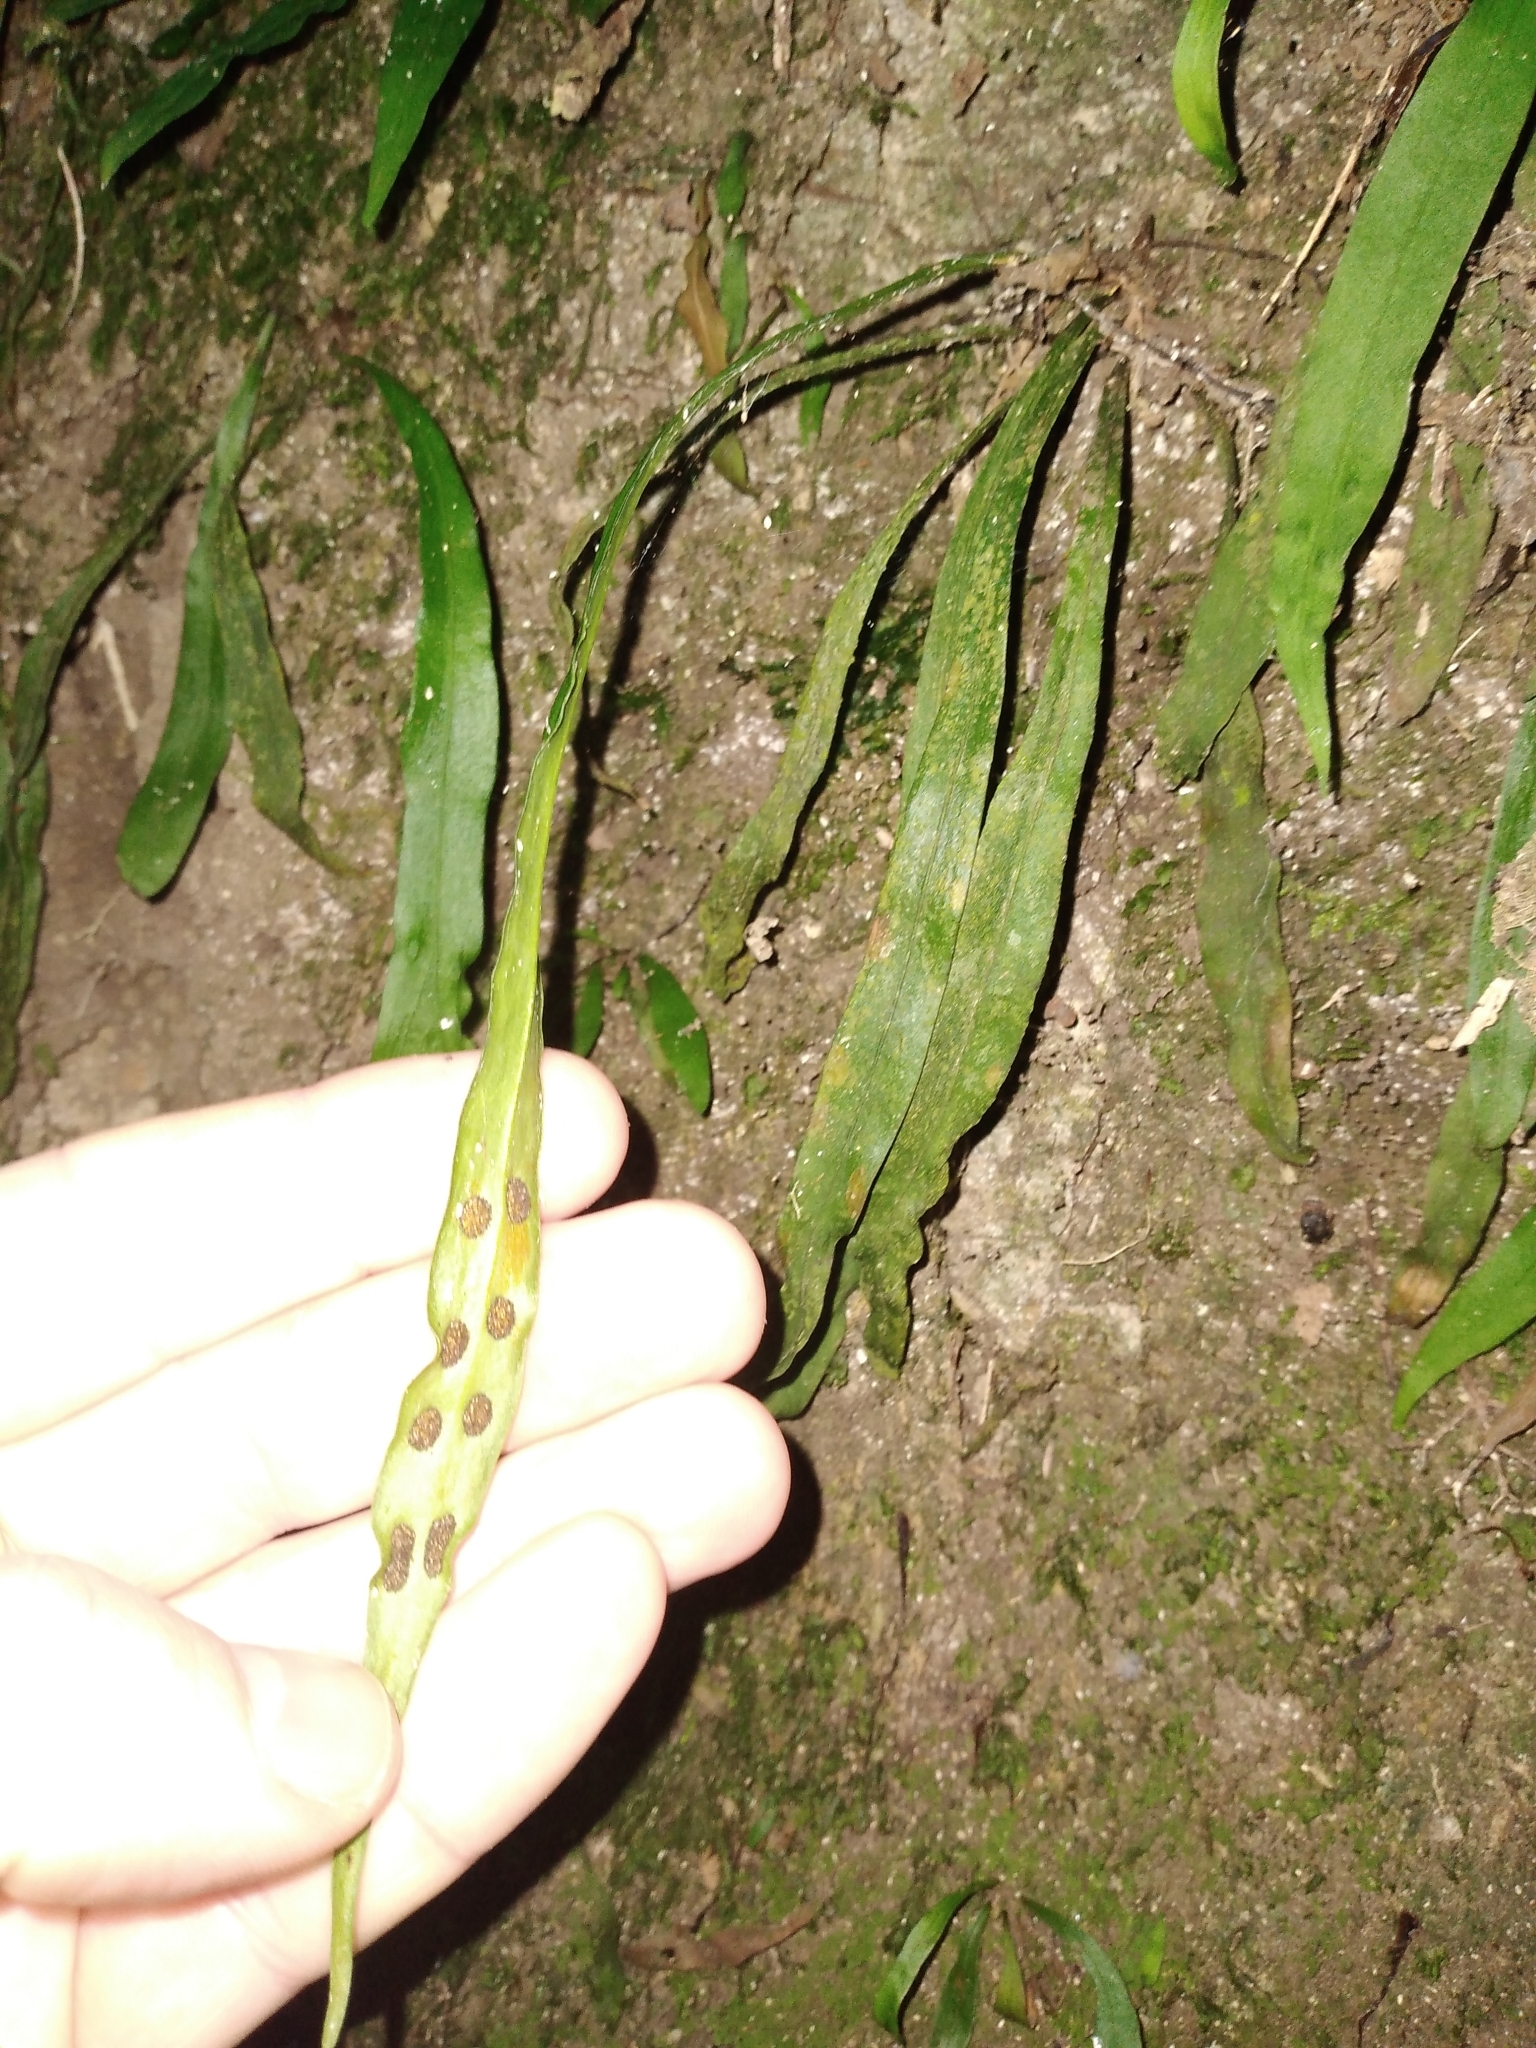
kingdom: Plantae
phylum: Tracheophyta
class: Polypodiopsida
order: Polypodiales
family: Polypodiaceae
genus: Loxogramme
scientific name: Loxogramme dictyopteris
